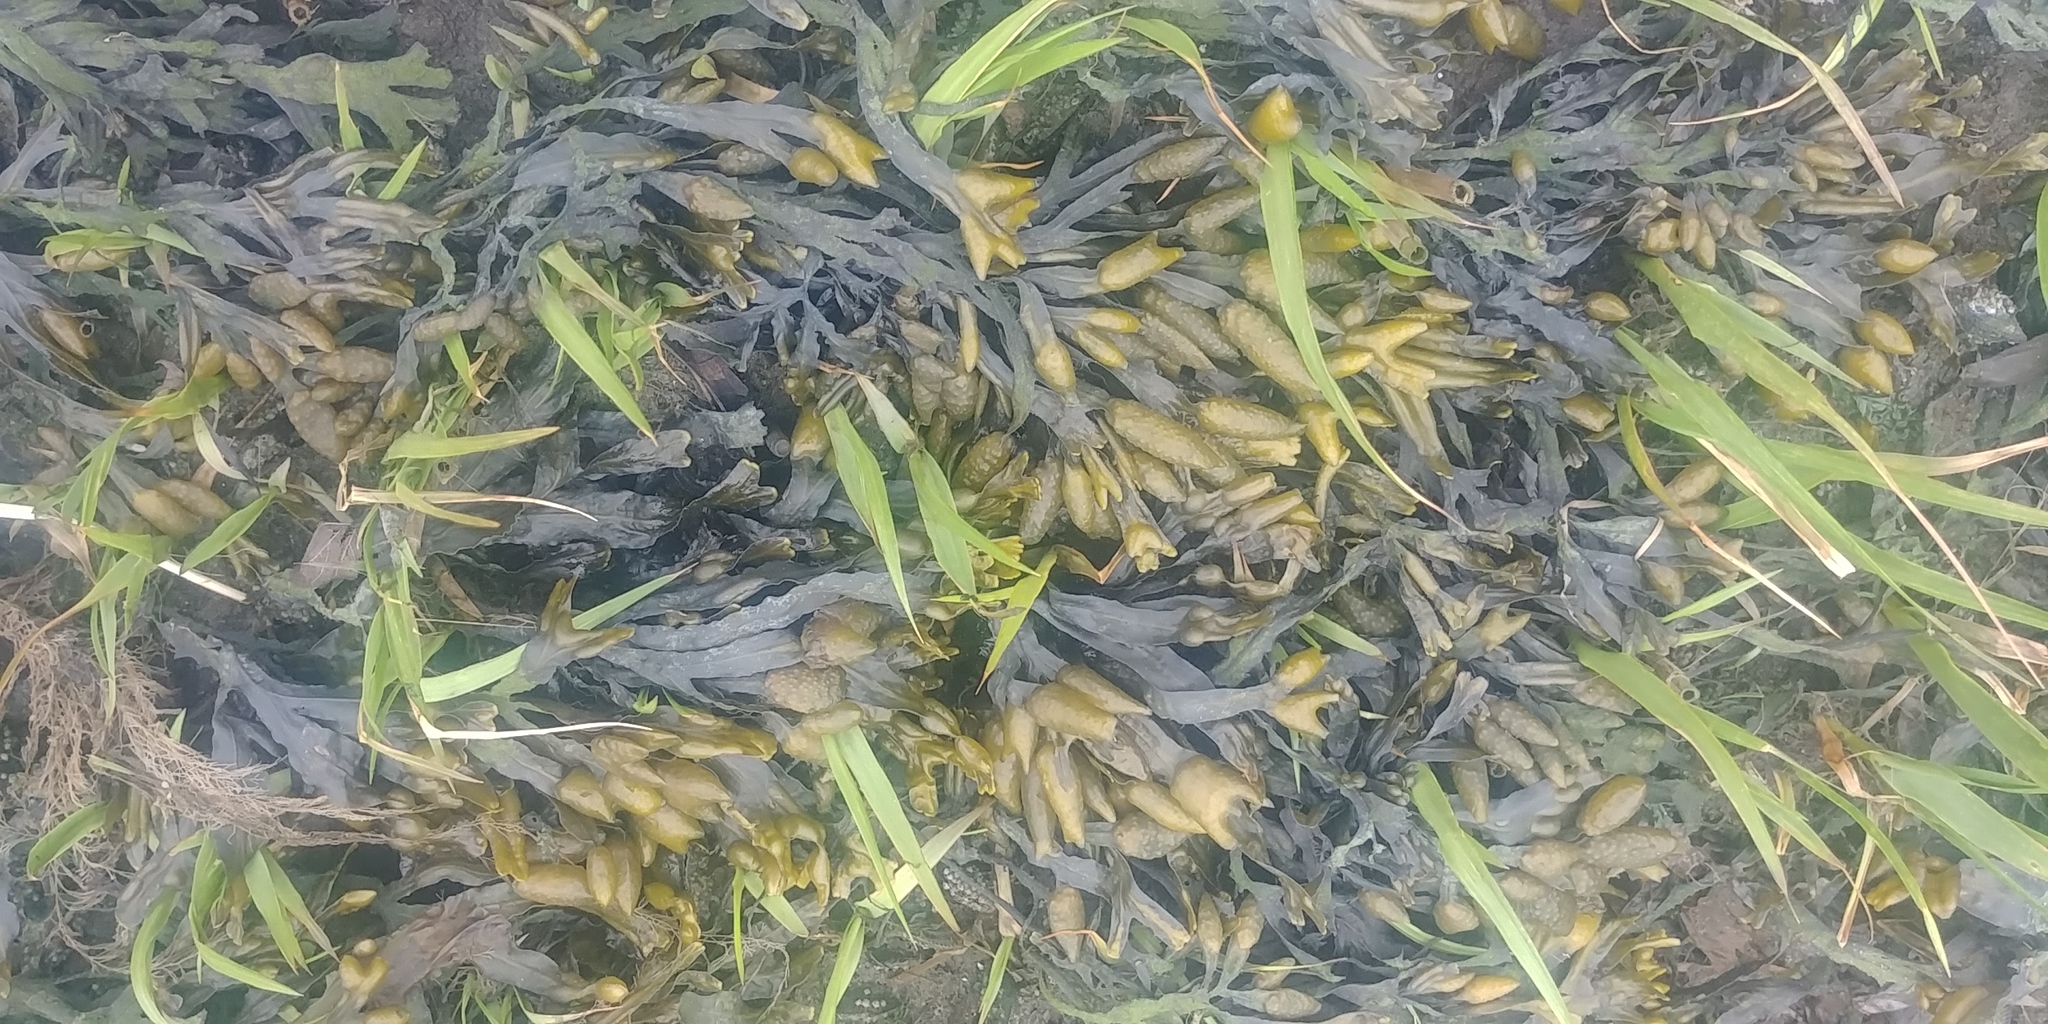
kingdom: Chromista
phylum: Ochrophyta
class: Phaeophyceae
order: Fucales
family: Fucaceae
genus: Fucus
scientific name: Fucus vesiculosus
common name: Bladder wrack
